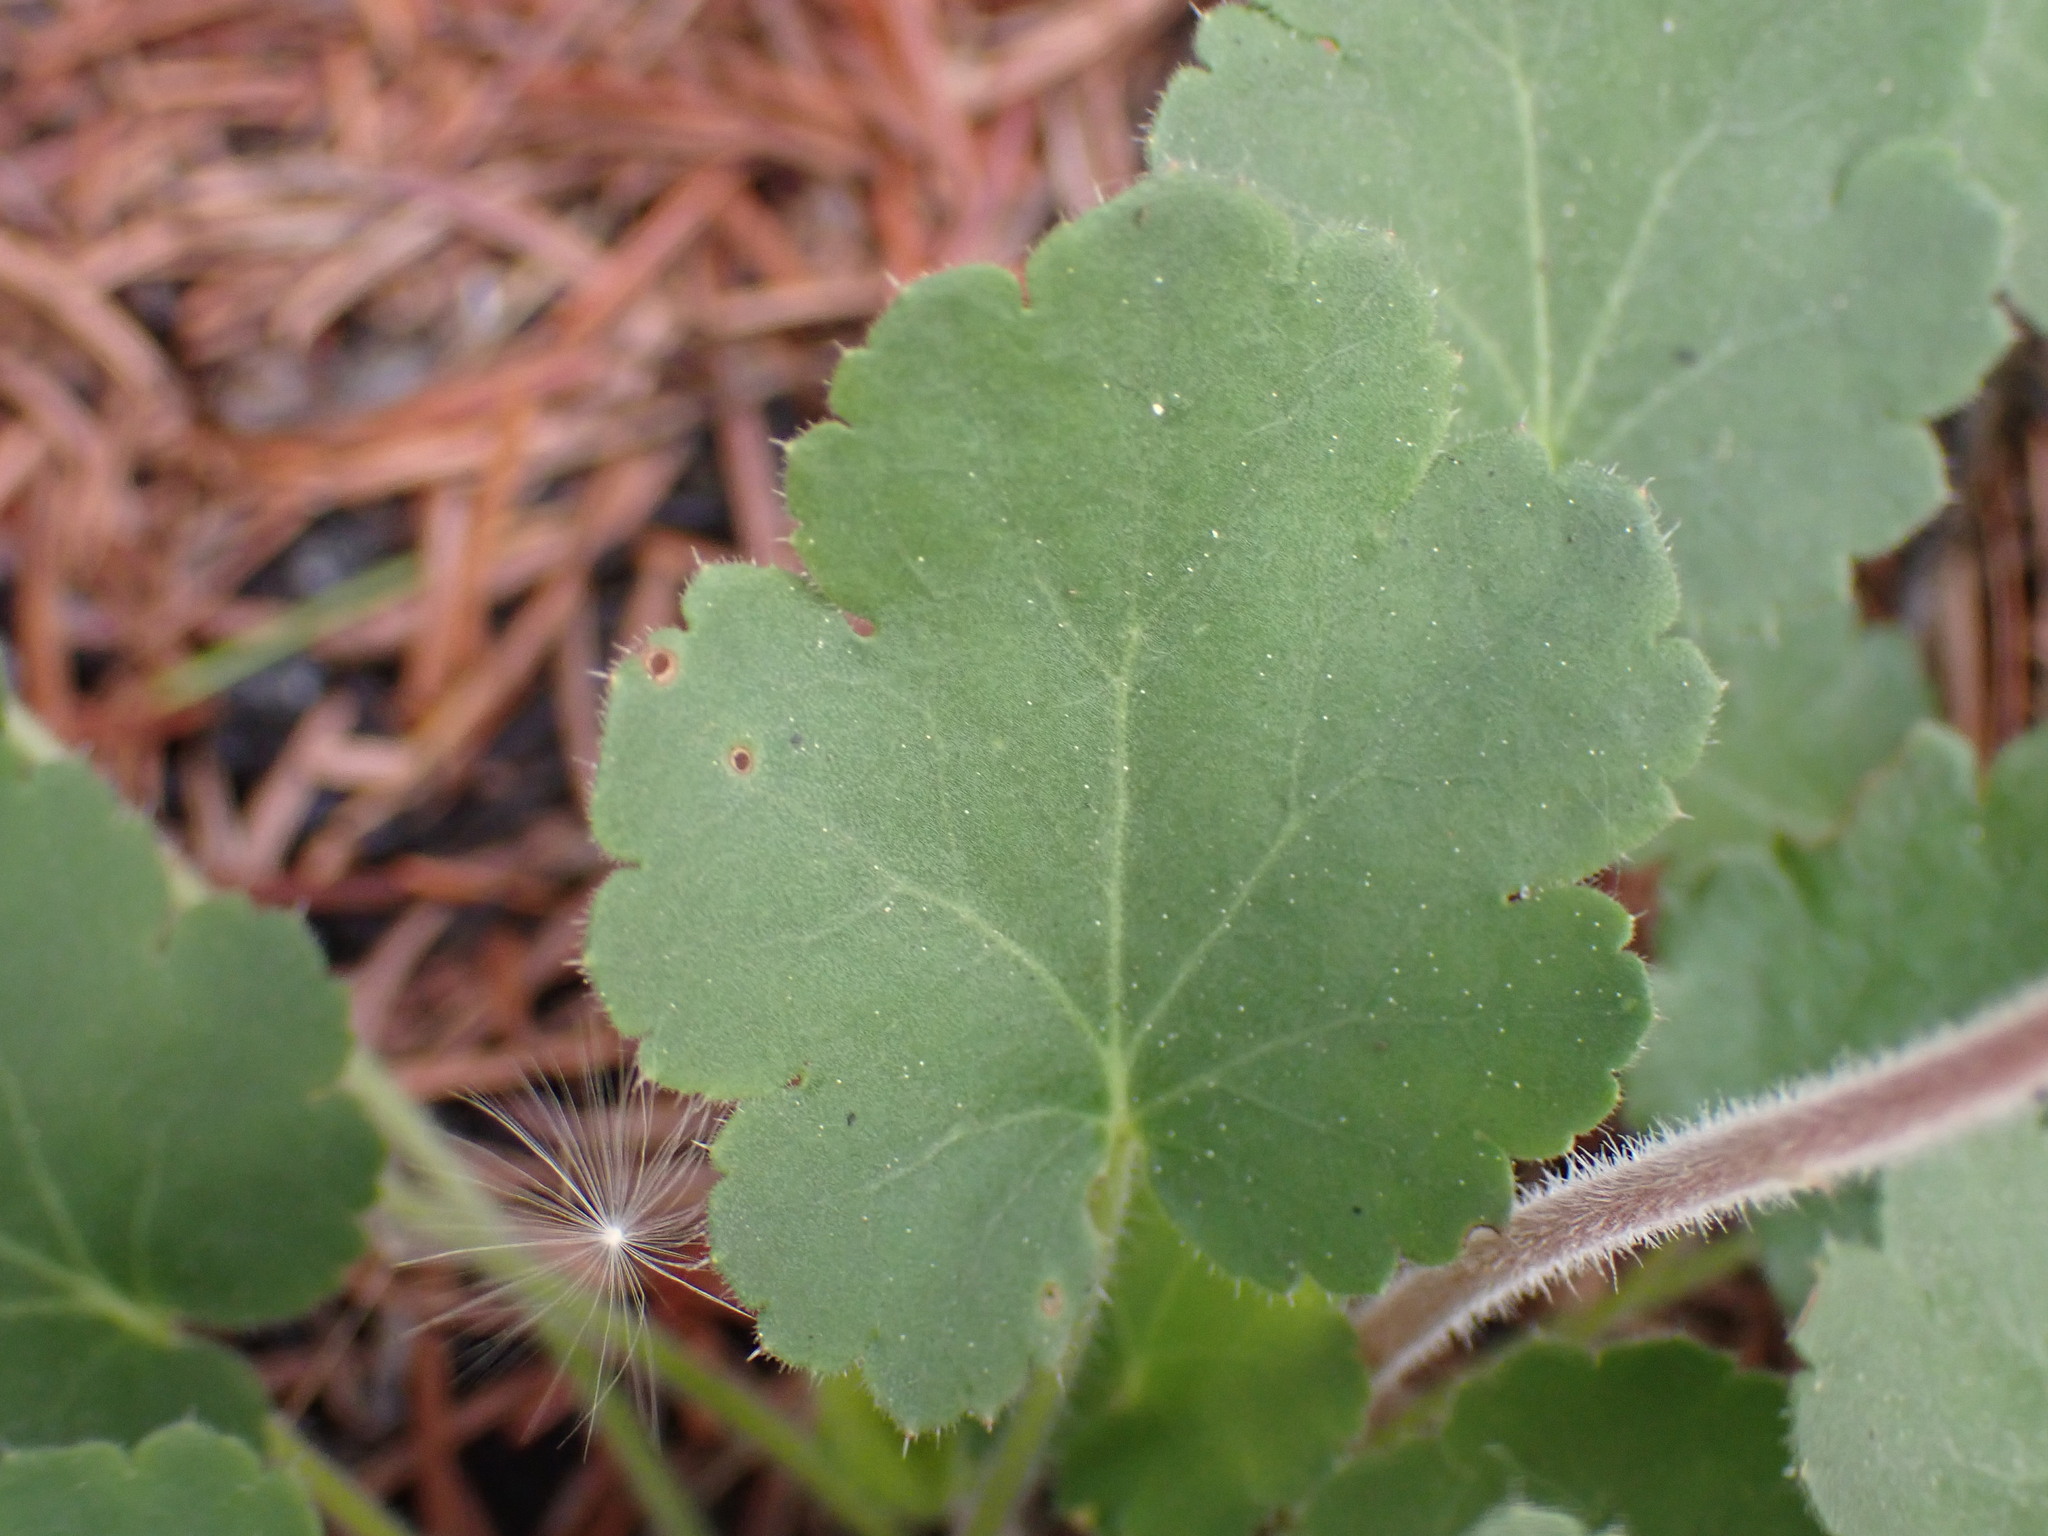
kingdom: Plantae
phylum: Tracheophyta
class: Magnoliopsida
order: Saxifragales
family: Saxifragaceae
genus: Heuchera
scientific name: Heuchera cylindrica
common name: Mat alumroot
